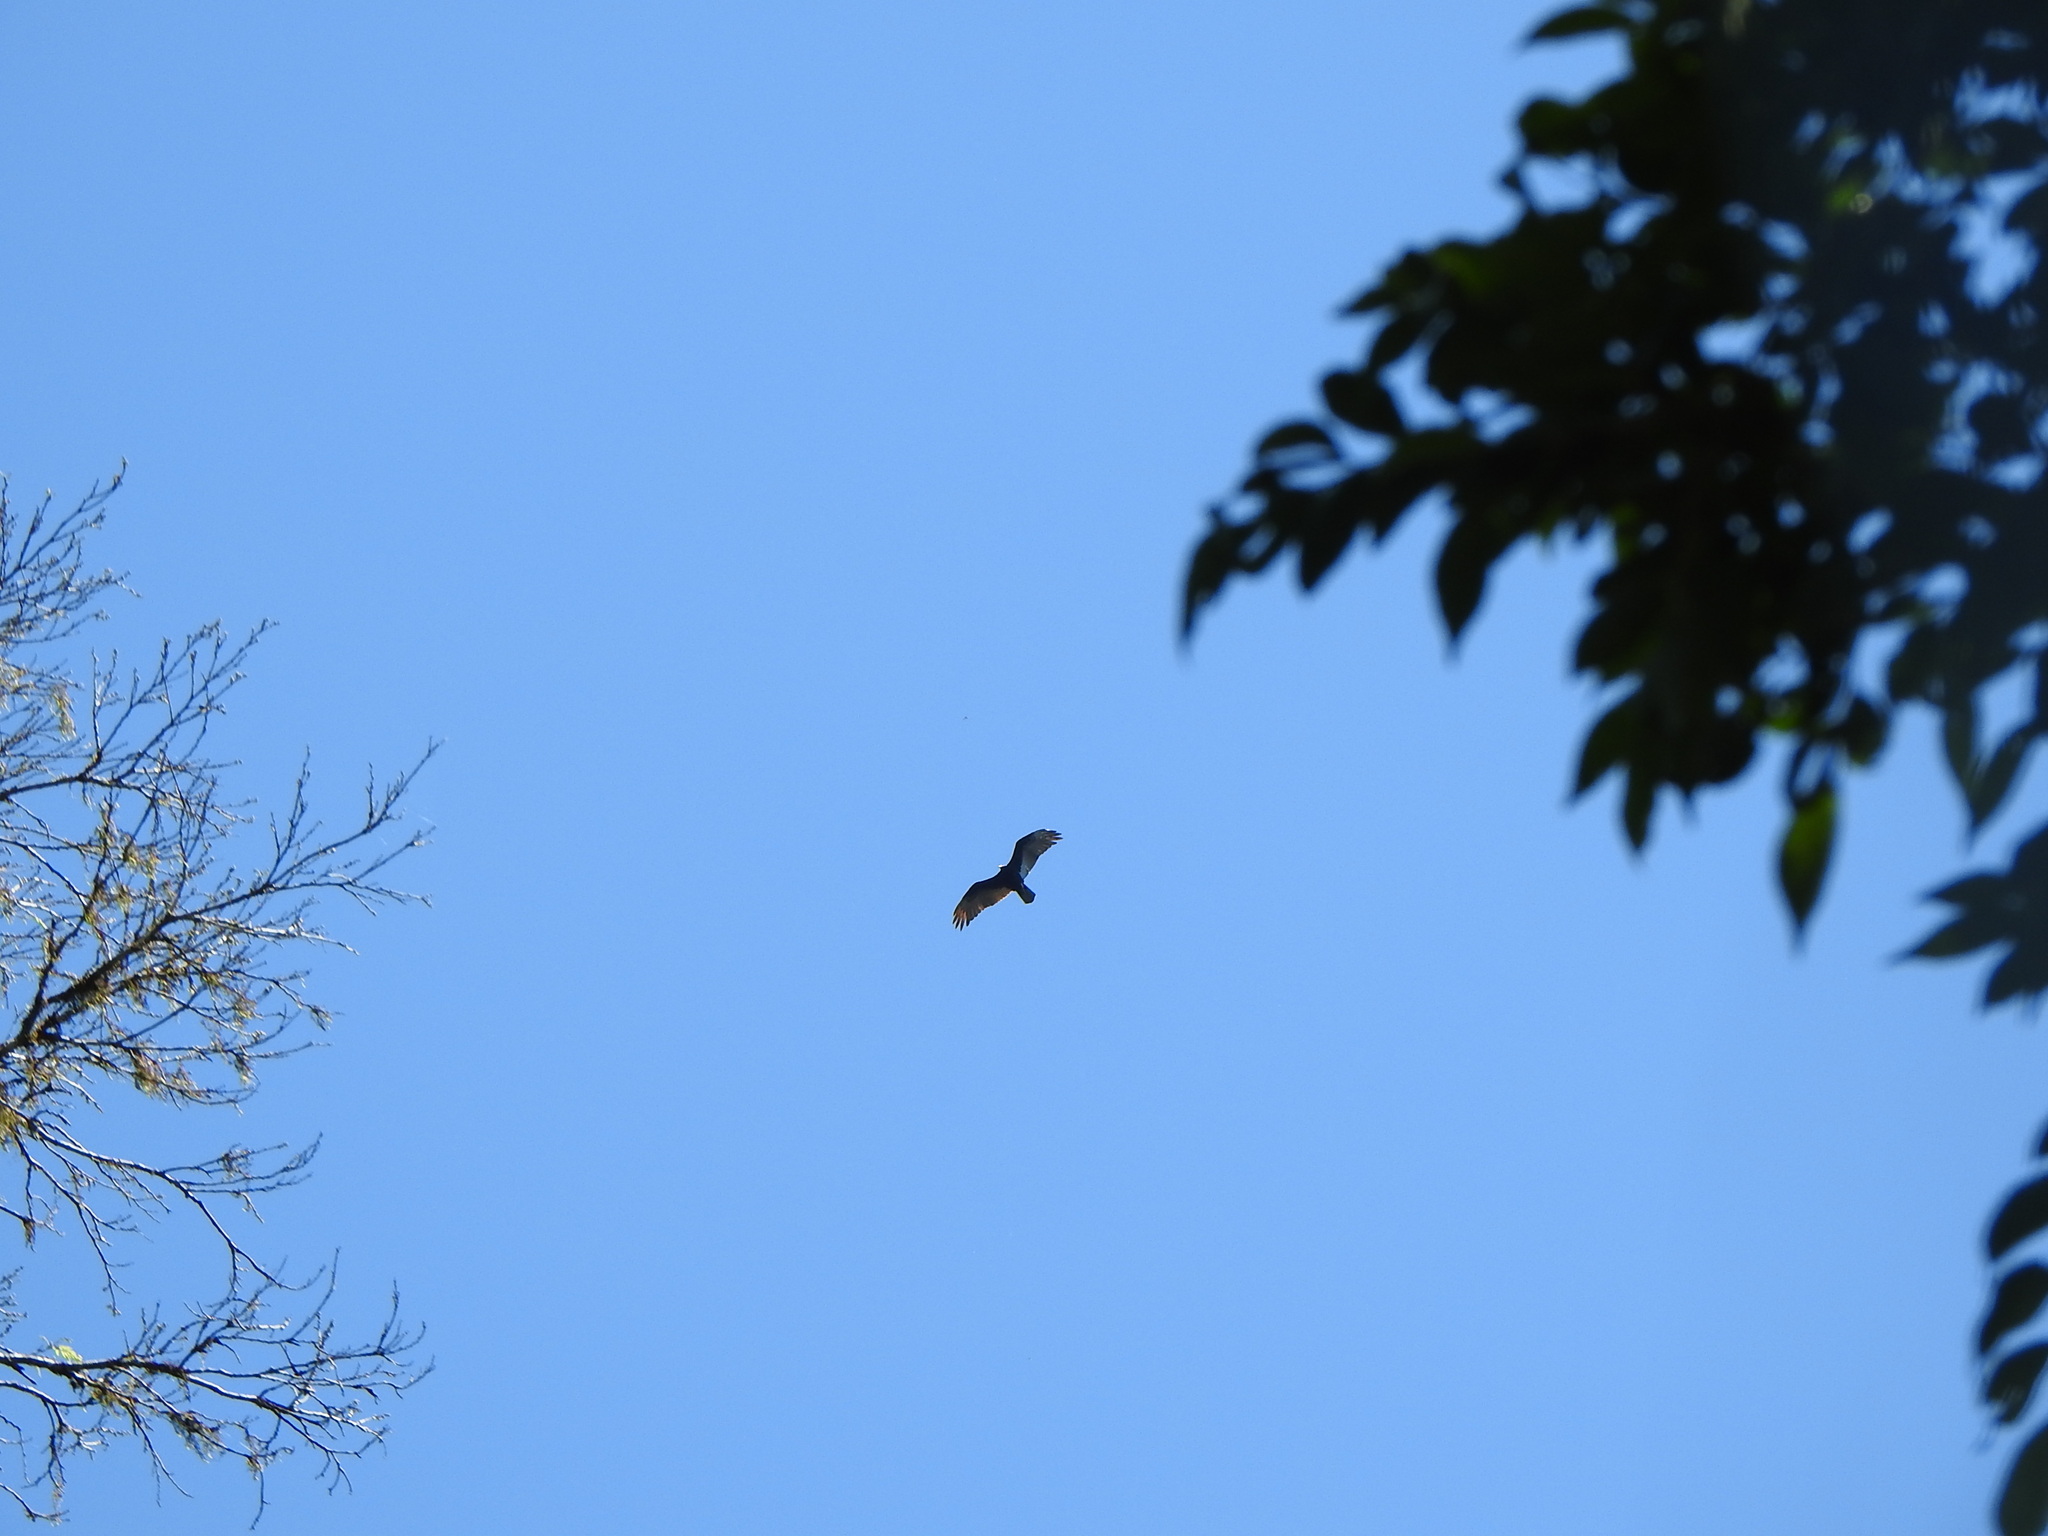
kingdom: Animalia
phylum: Chordata
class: Aves
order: Accipitriformes
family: Cathartidae
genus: Cathartes
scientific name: Cathartes aura
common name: Turkey vulture
